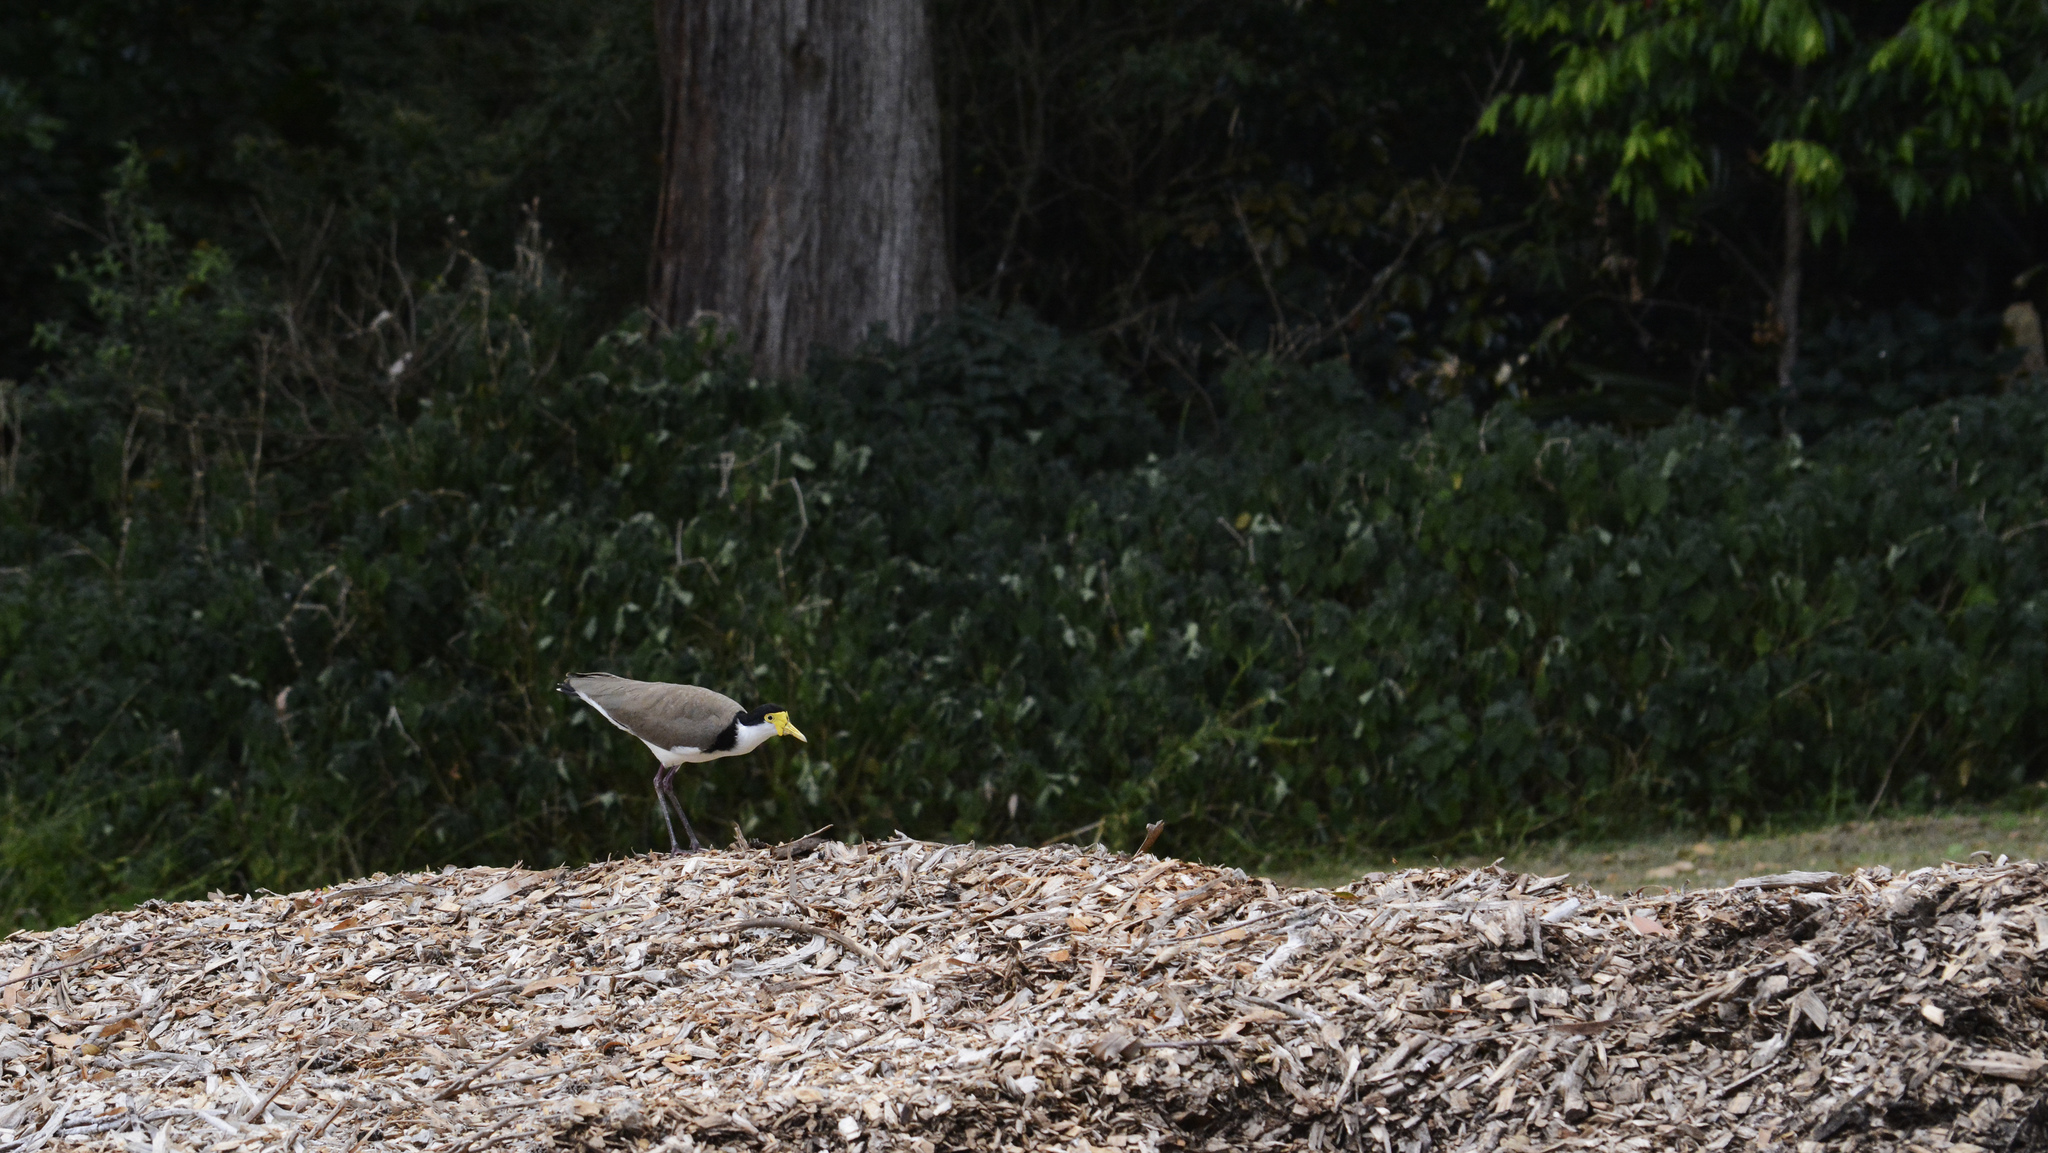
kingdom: Animalia
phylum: Chordata
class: Aves
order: Charadriiformes
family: Charadriidae
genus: Vanellus
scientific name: Vanellus miles
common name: Masked lapwing
